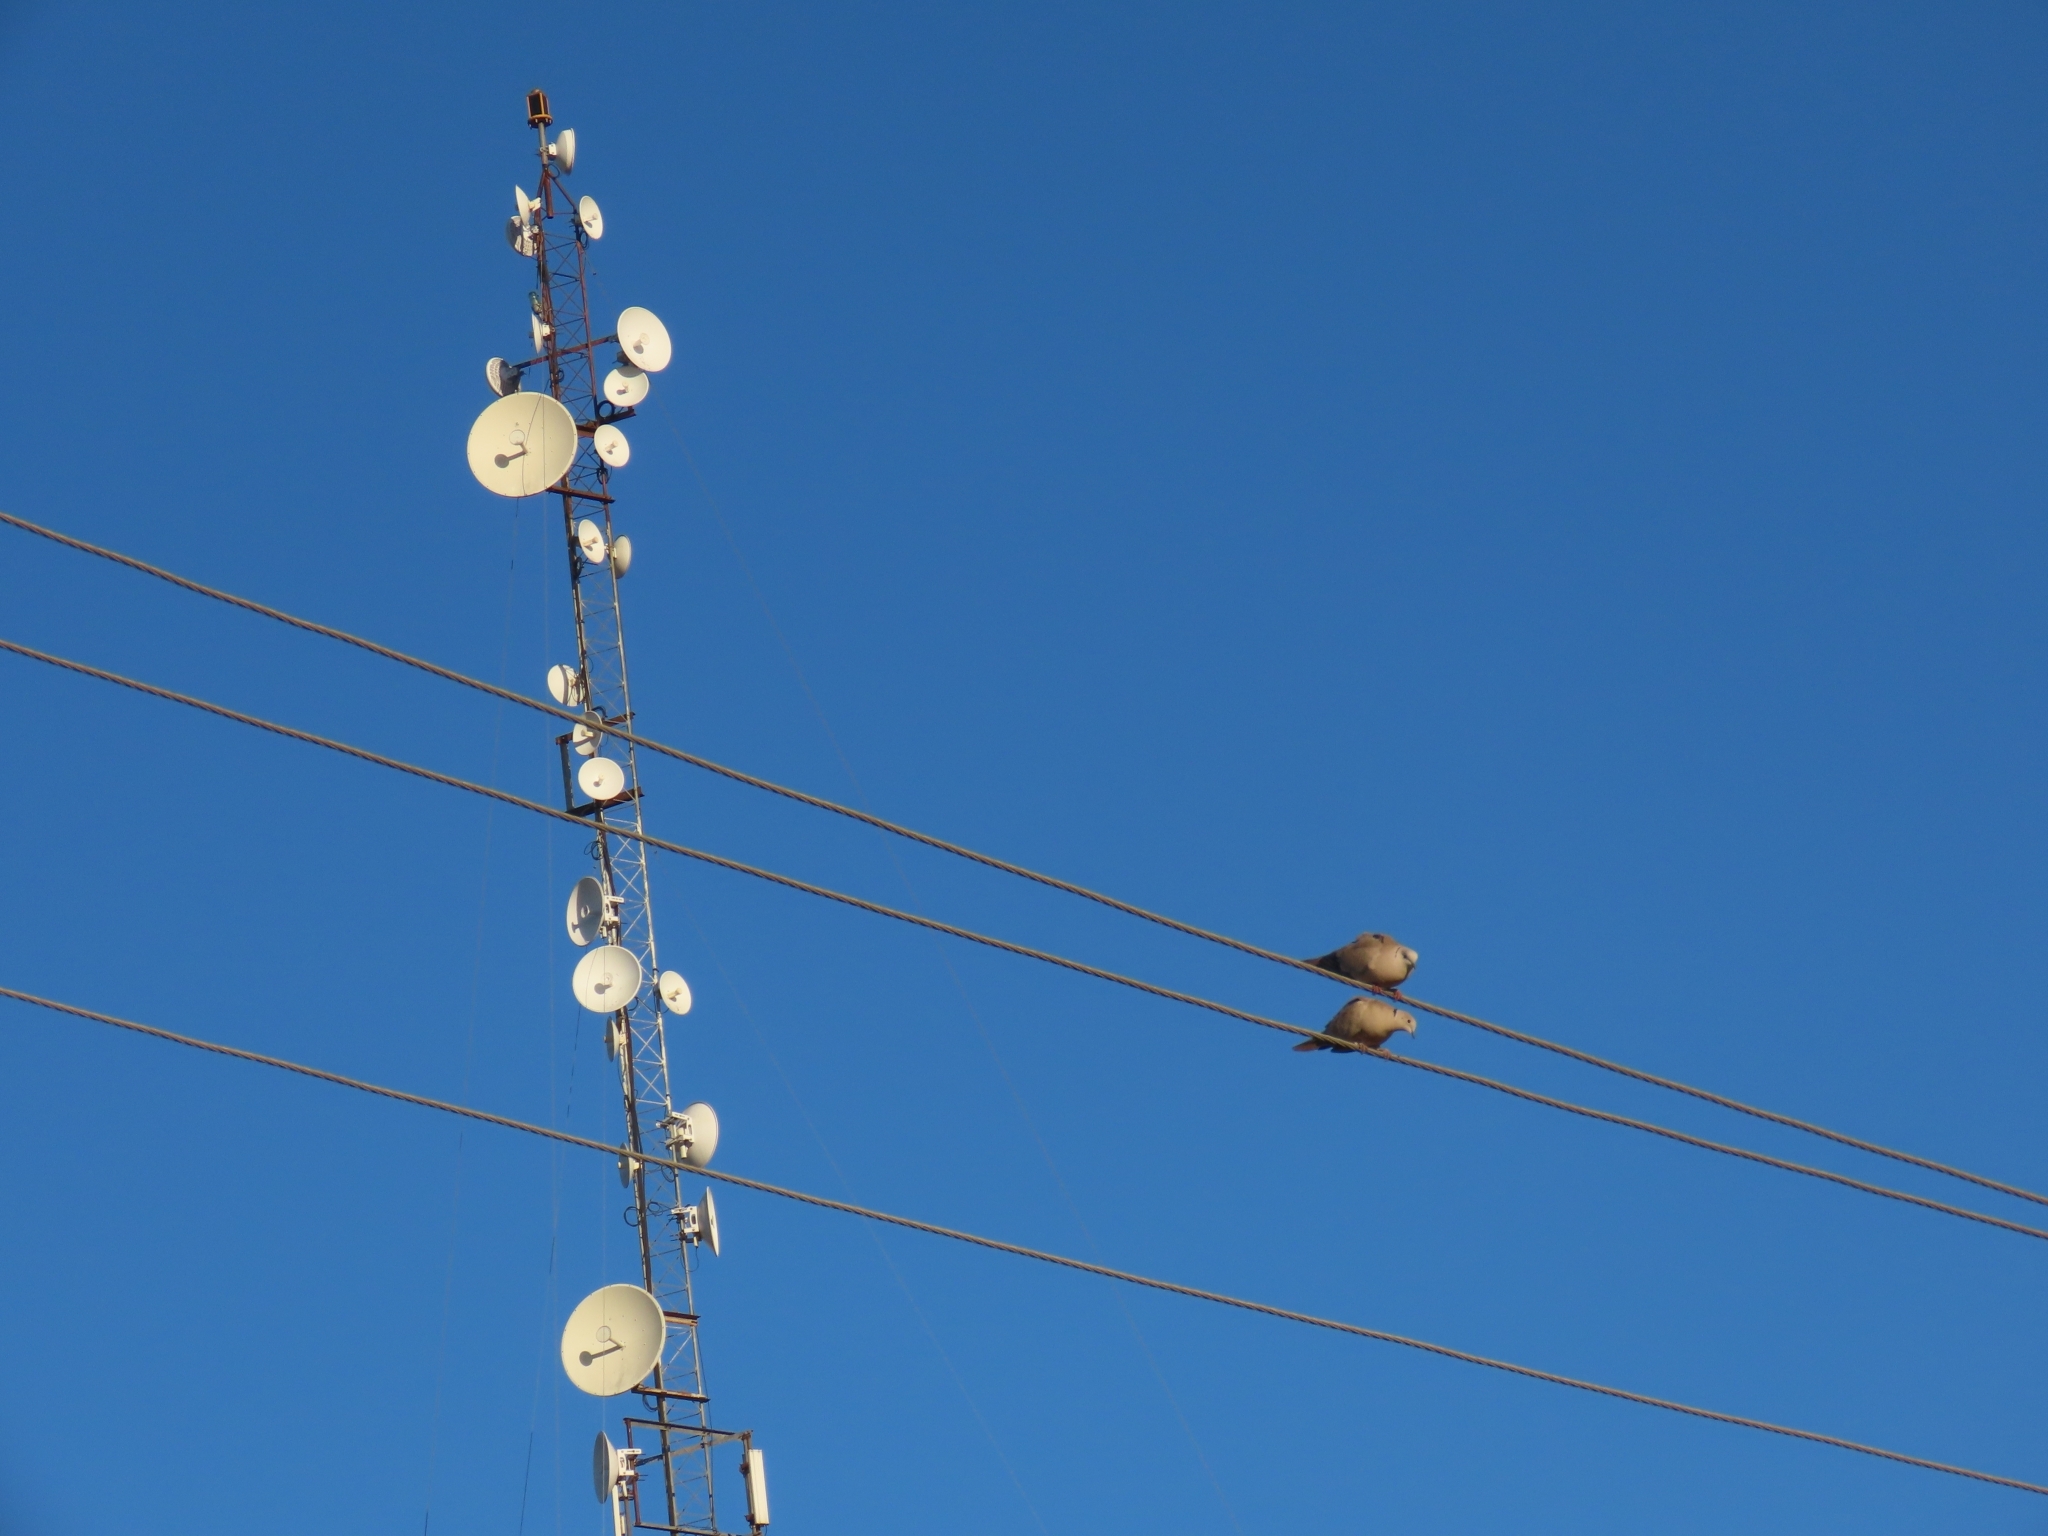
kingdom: Animalia
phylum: Chordata
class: Aves
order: Columbiformes
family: Columbidae
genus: Streptopelia
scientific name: Streptopelia decaocto
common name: Eurasian collared dove
